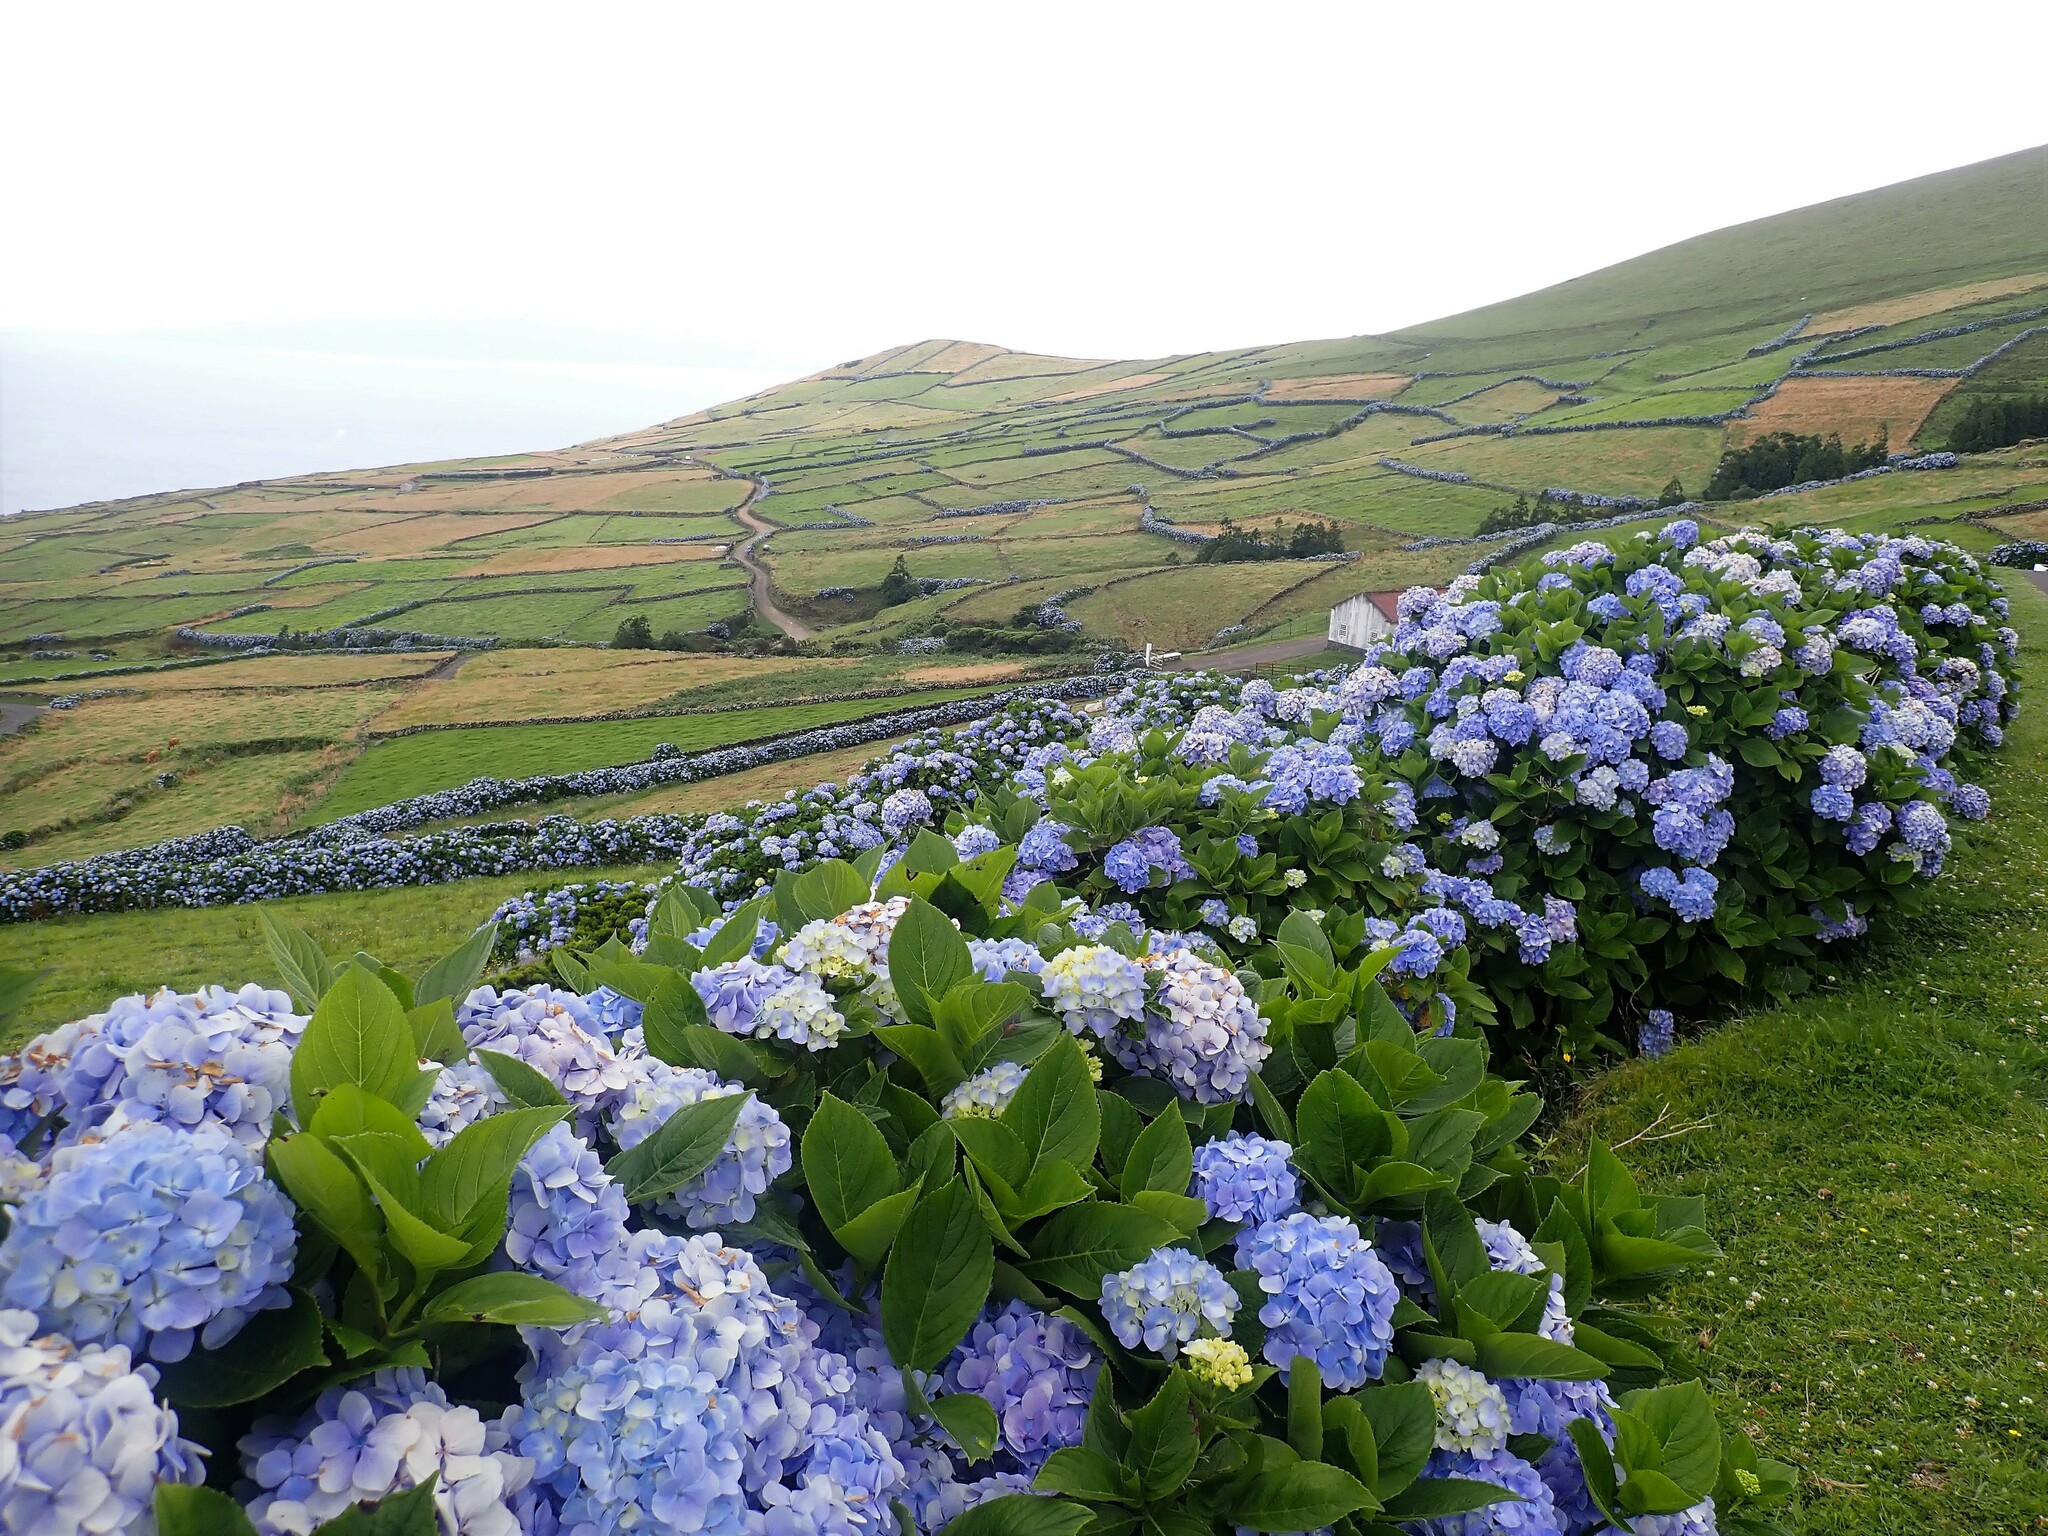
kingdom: Plantae
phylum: Tracheophyta
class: Magnoliopsida
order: Cornales
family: Hydrangeaceae
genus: Hydrangea
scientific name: Hydrangea macrophylla
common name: Hydrangea
